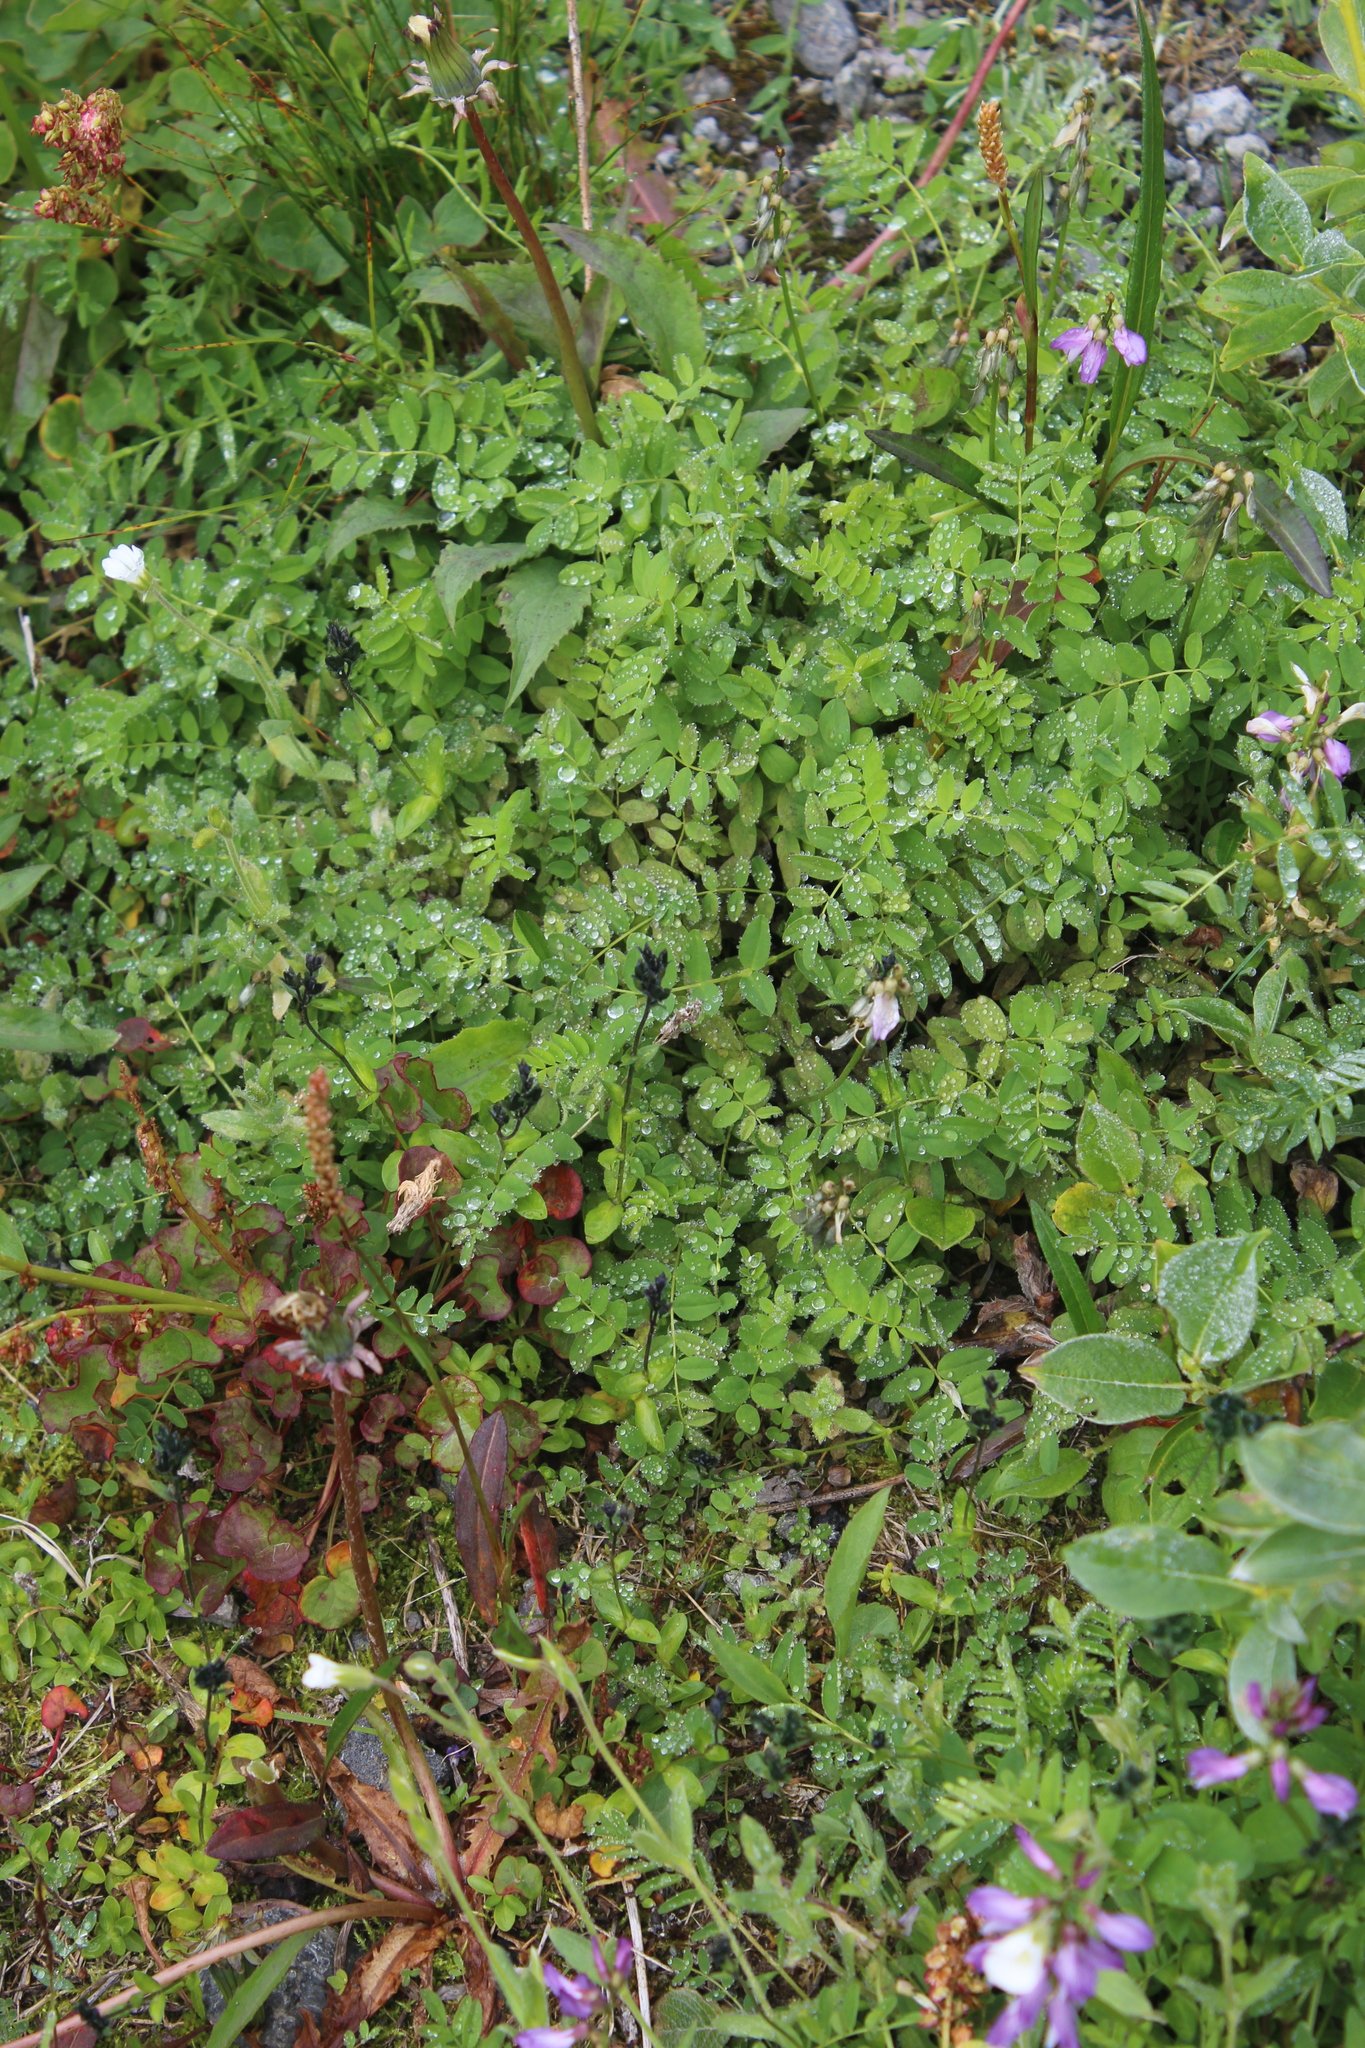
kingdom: Plantae
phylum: Tracheophyta
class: Magnoliopsida
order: Lamiales
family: Plantaginaceae
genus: Veronica
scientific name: Veronica alpina
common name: Alpine speedwell
